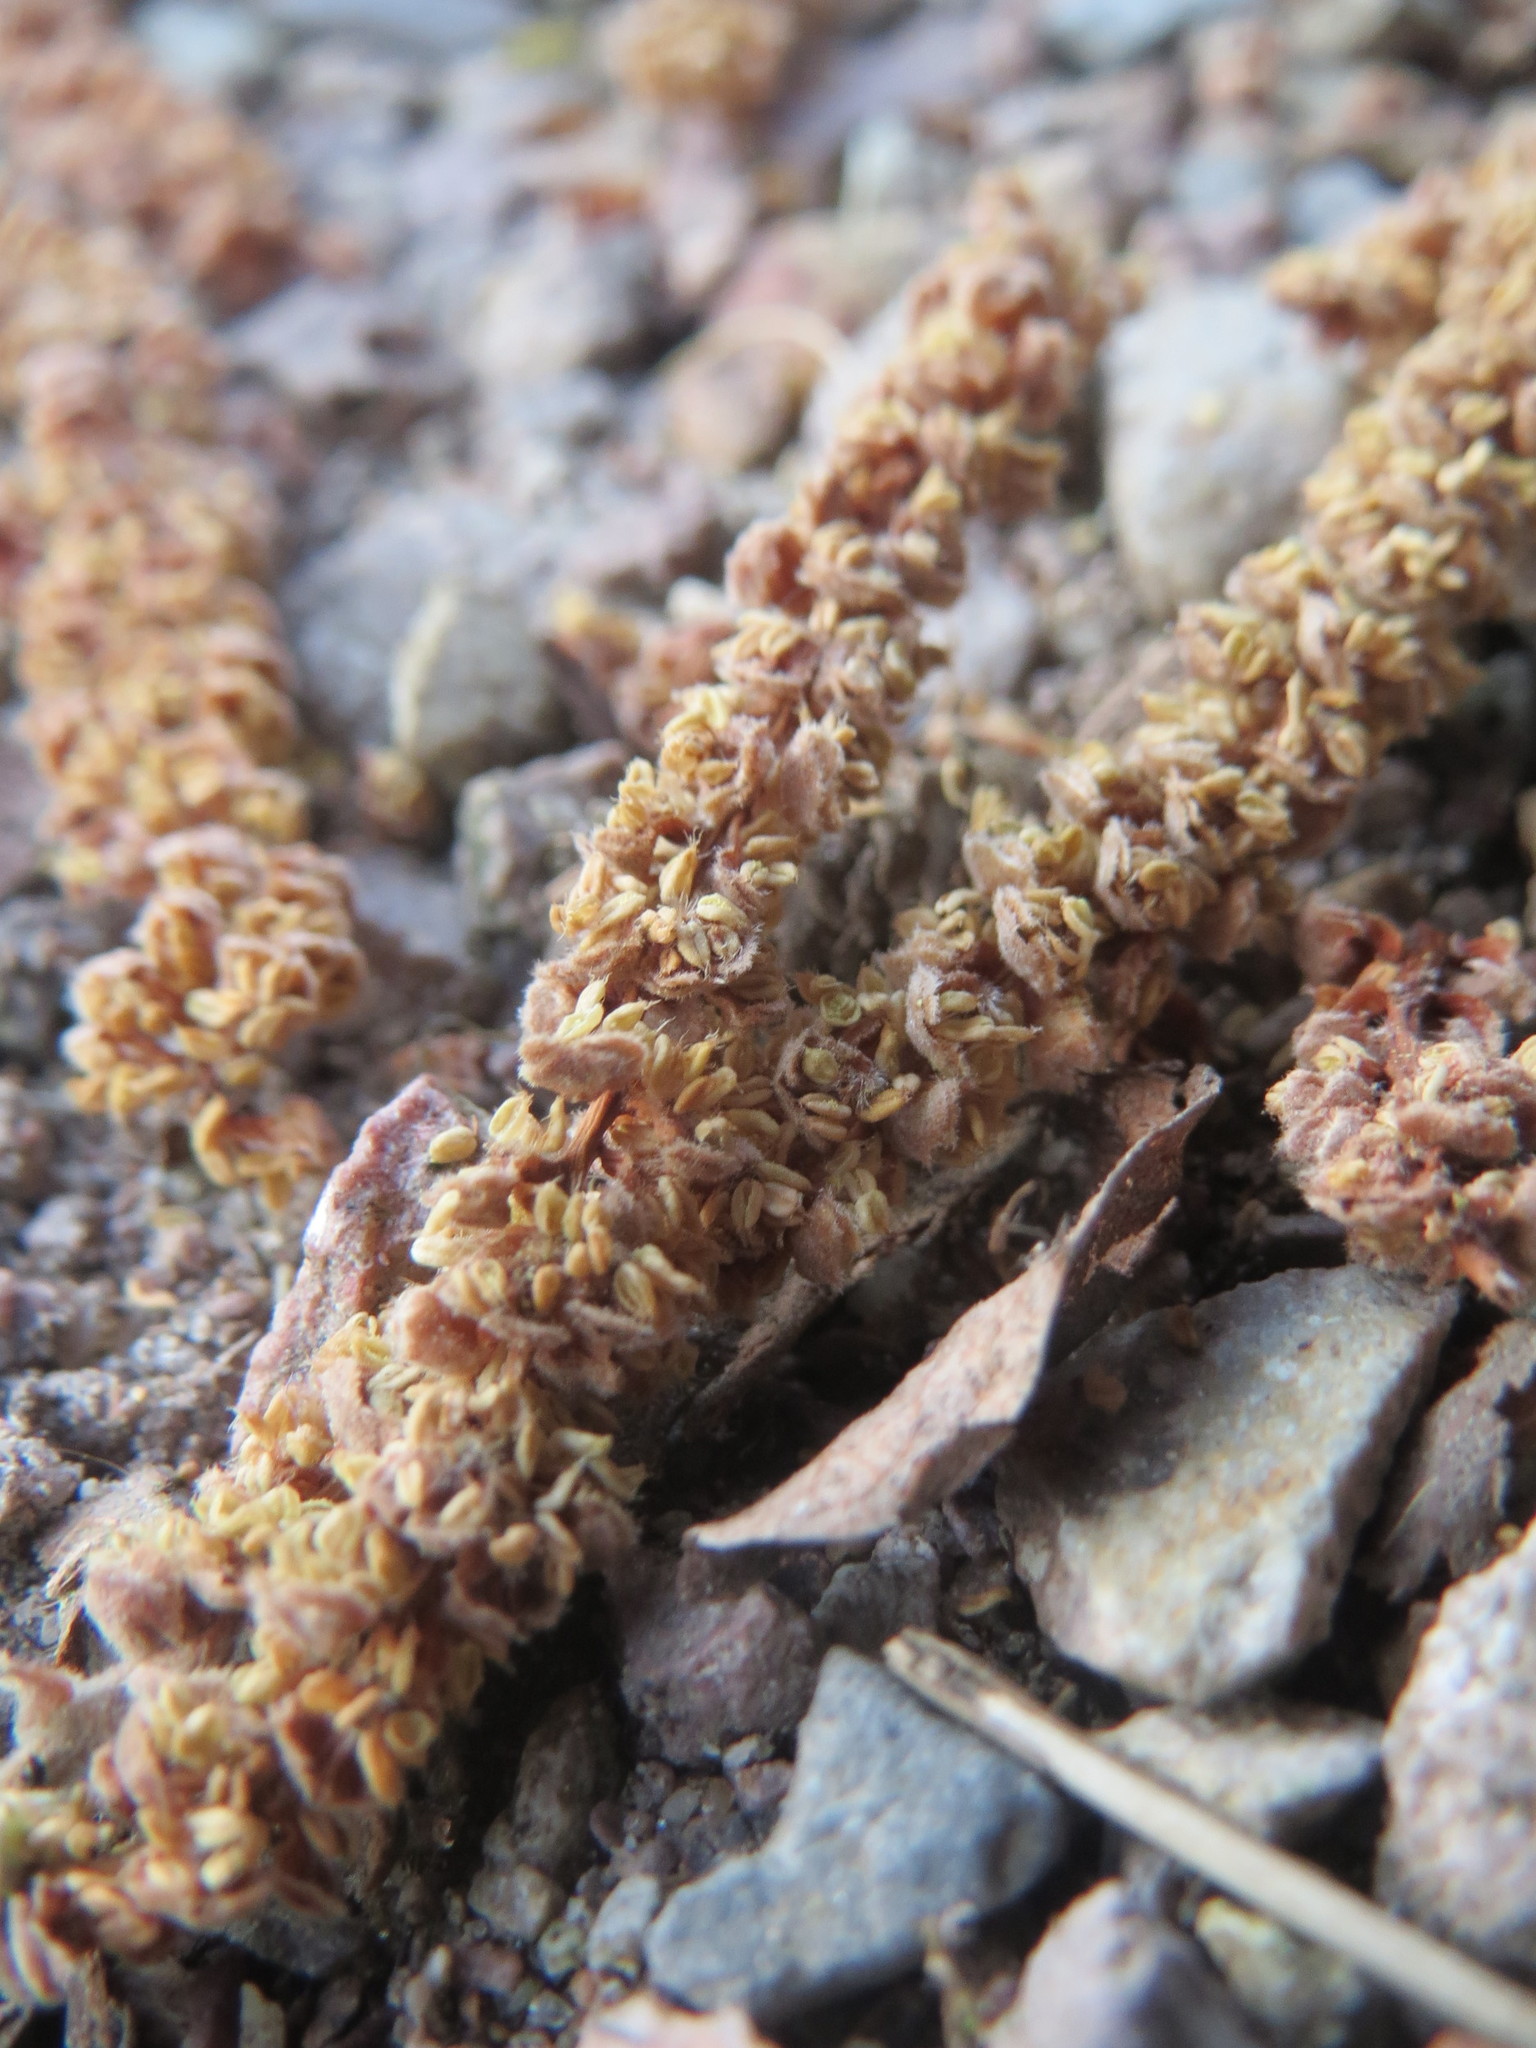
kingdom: Plantae
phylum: Tracheophyta
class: Magnoliopsida
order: Fagales
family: Betulaceae
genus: Corylus
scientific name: Corylus avellana
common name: European hazel
